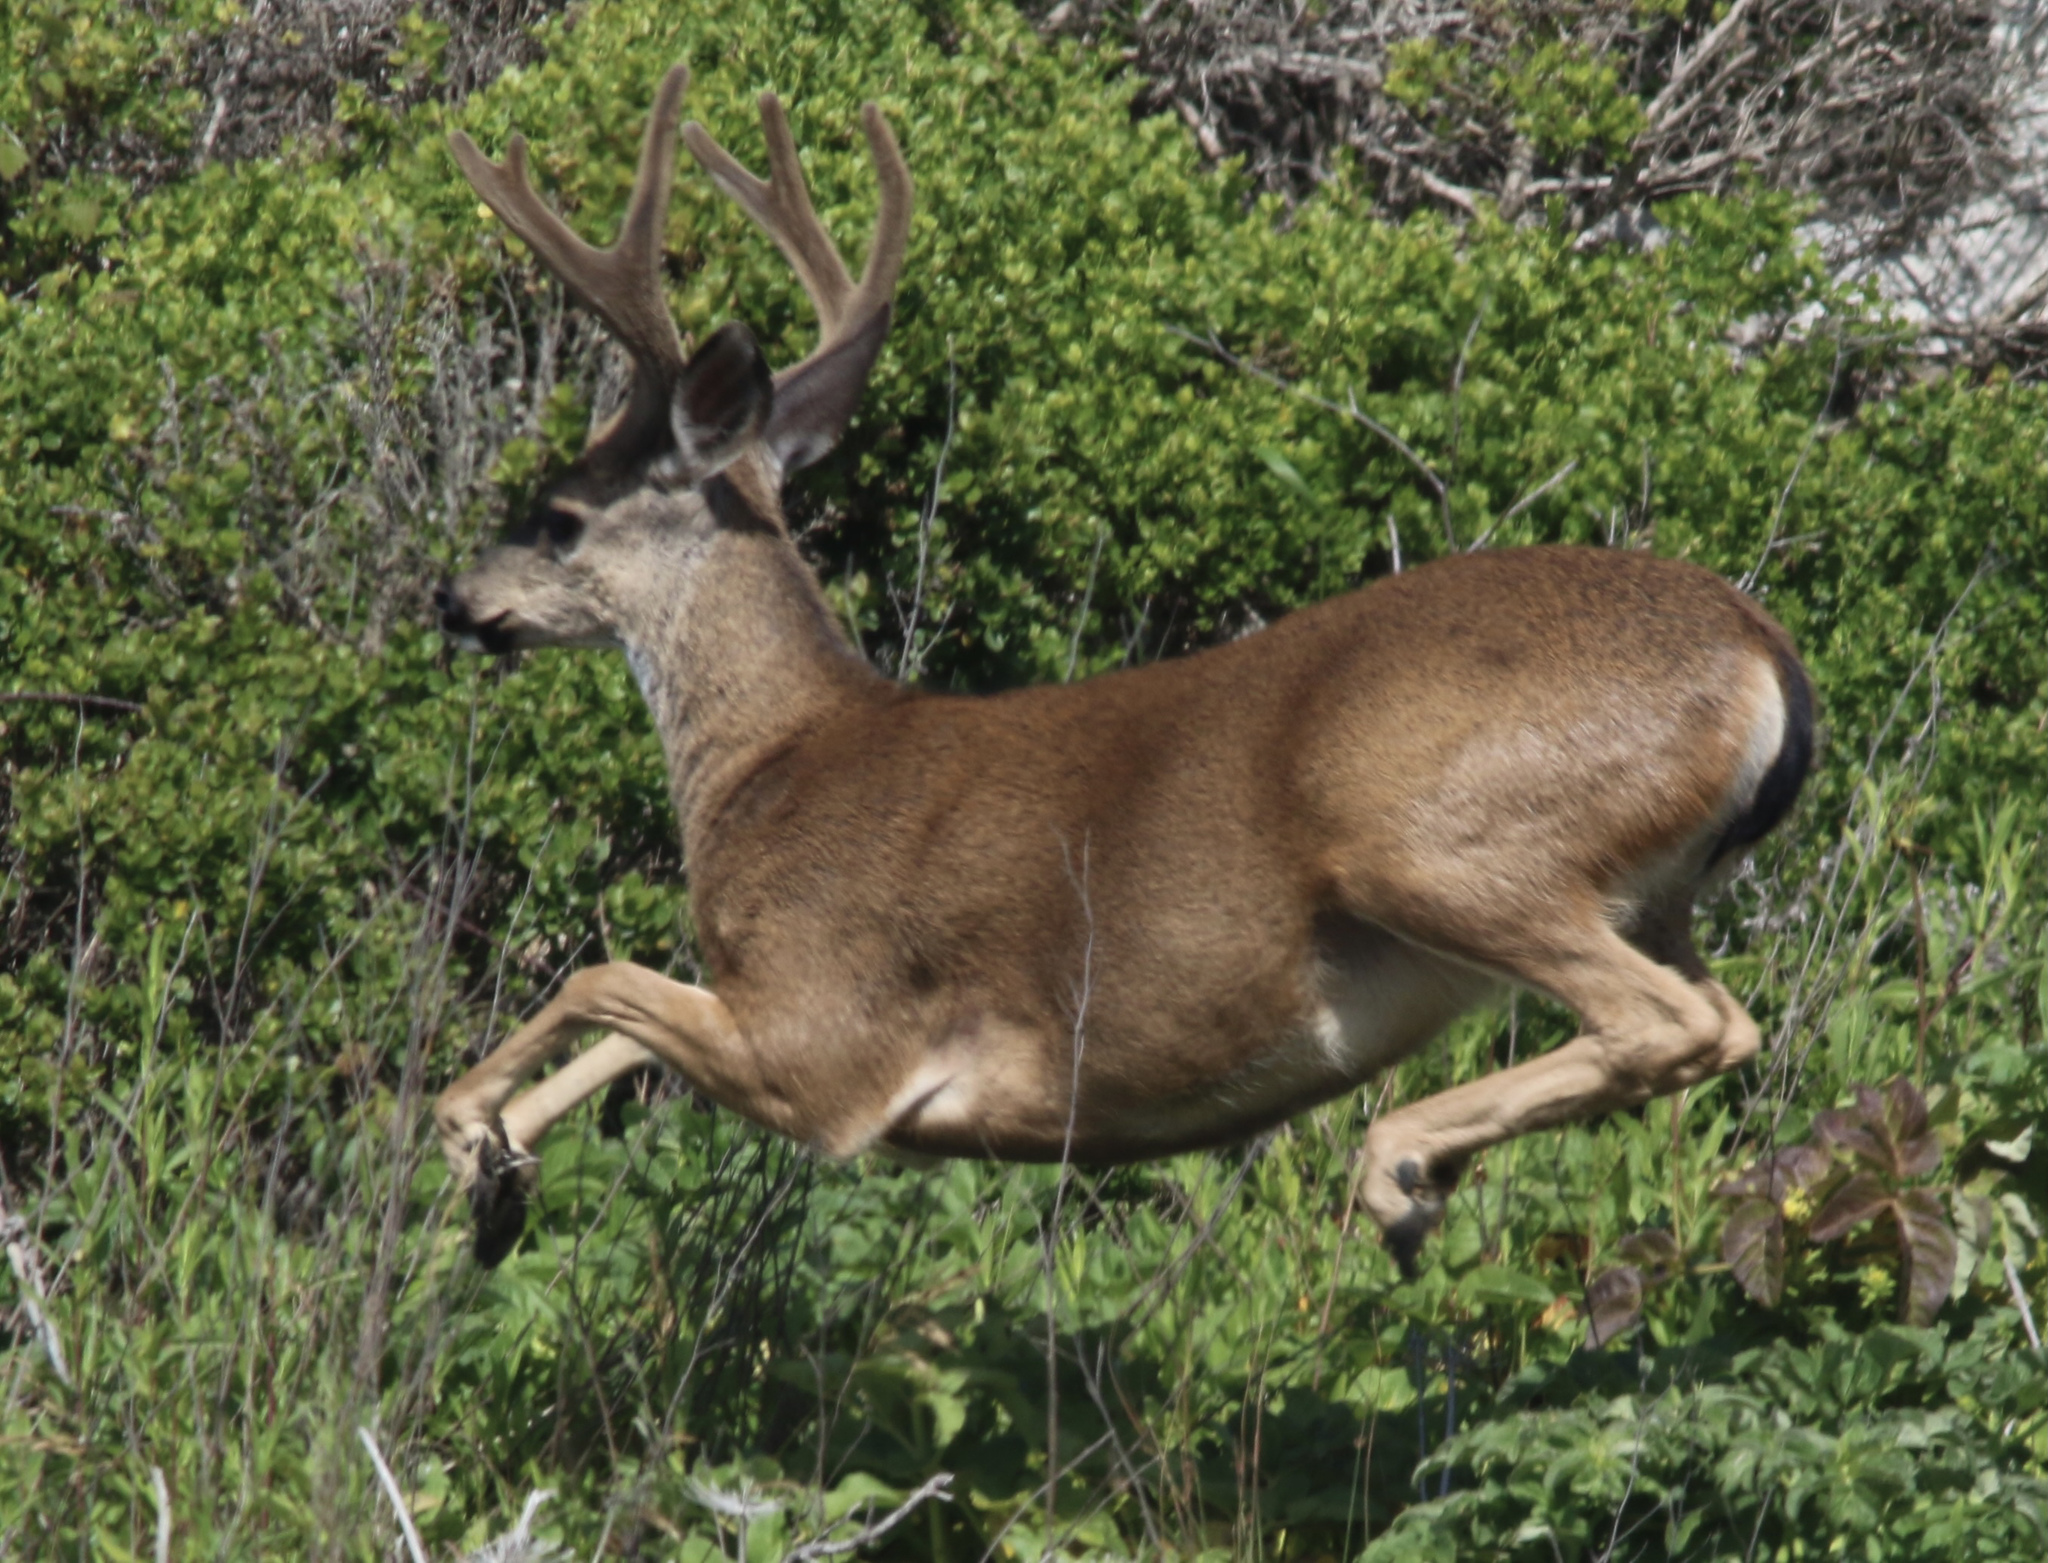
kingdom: Animalia
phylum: Chordata
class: Mammalia
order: Artiodactyla
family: Cervidae
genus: Odocoileus
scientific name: Odocoileus hemionus
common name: Mule deer
